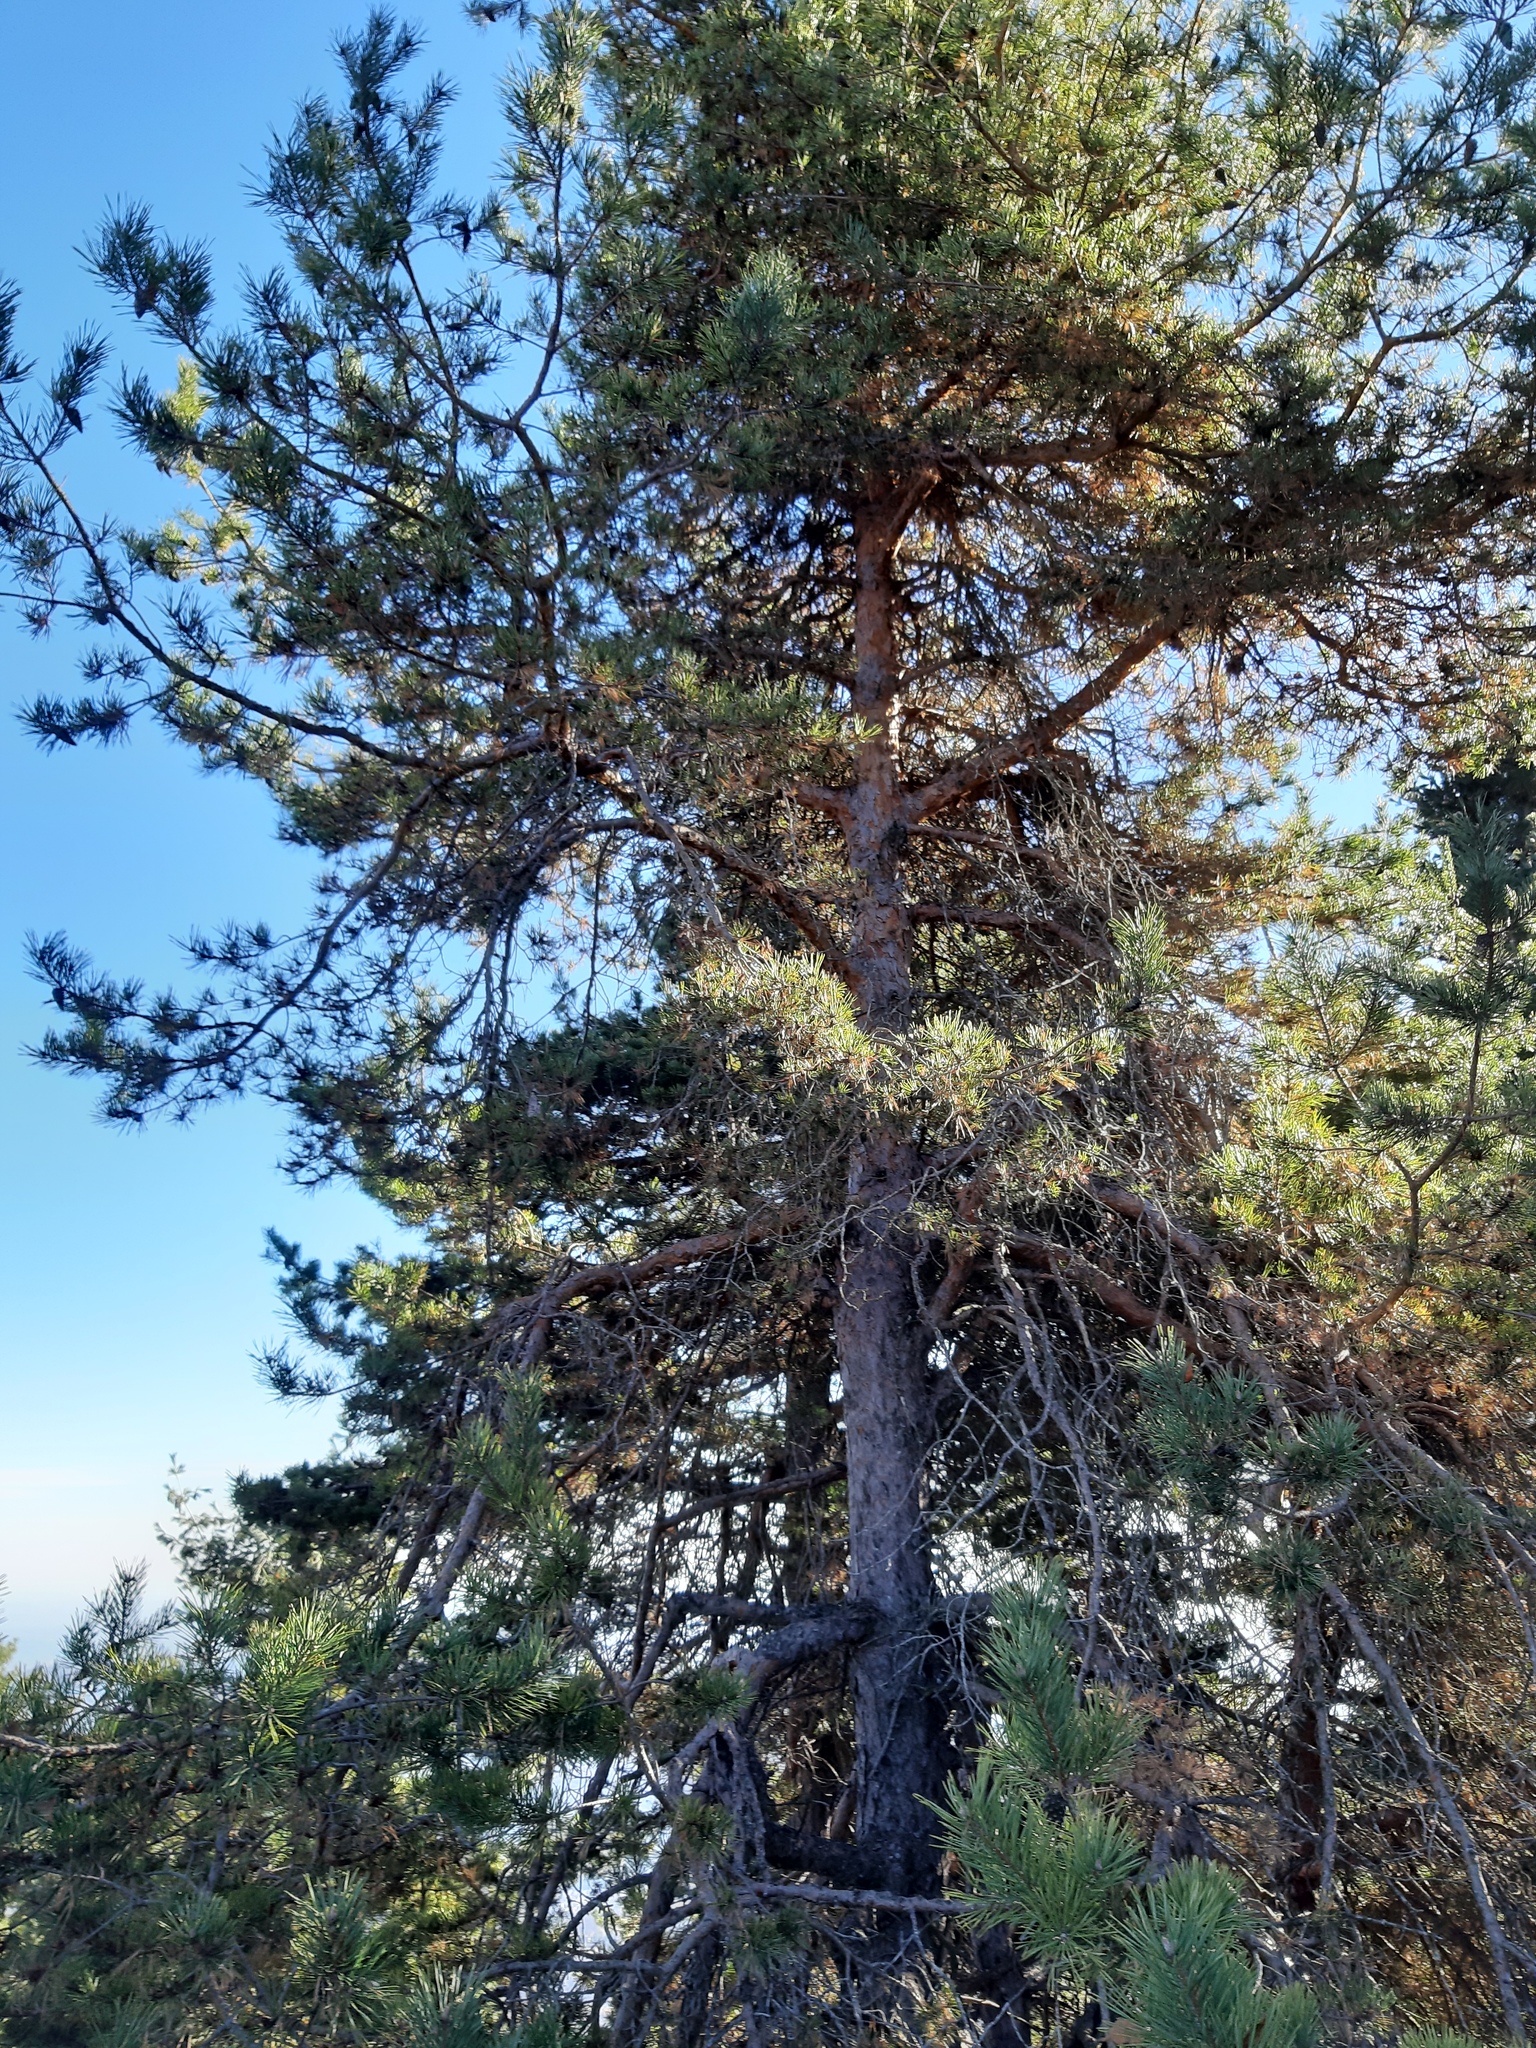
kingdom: Plantae
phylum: Tracheophyta
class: Pinopsida
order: Pinales
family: Pinaceae
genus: Pinus
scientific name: Pinus sylvestris
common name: Scots pine
